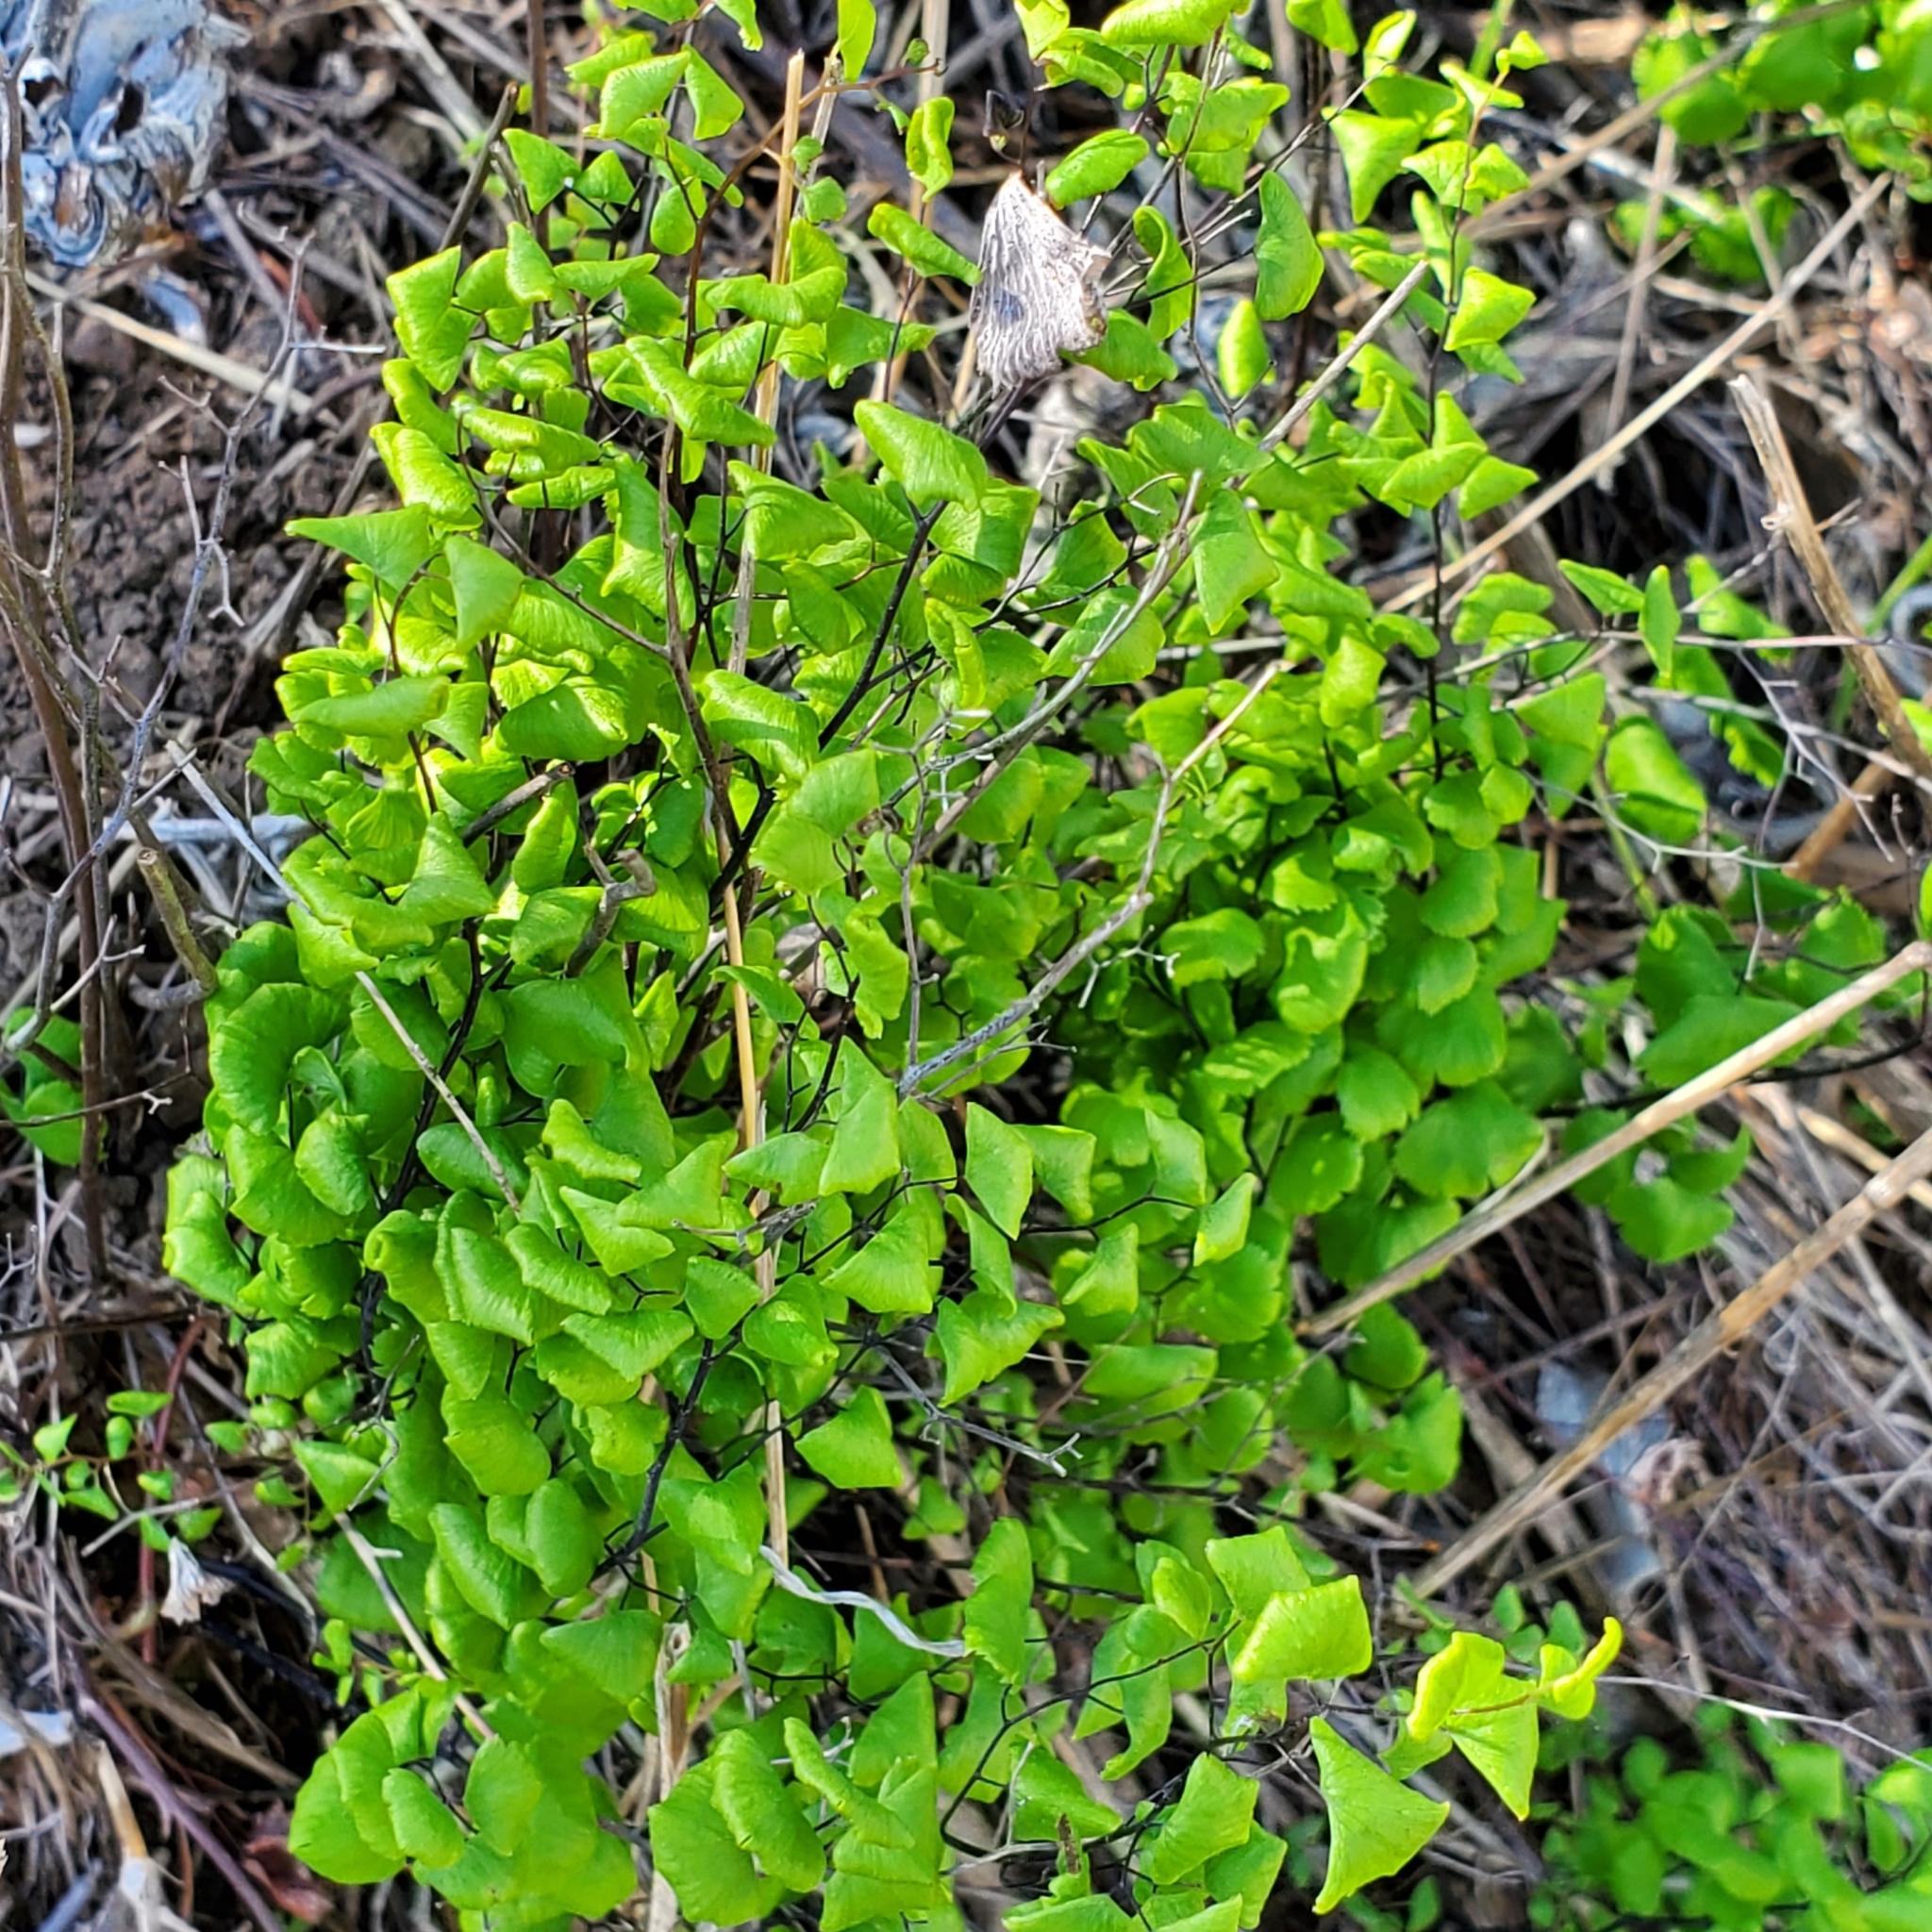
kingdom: Plantae
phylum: Tracheophyta
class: Polypodiopsida
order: Polypodiales
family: Pteridaceae
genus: Adiantum
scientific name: Adiantum jordanii
